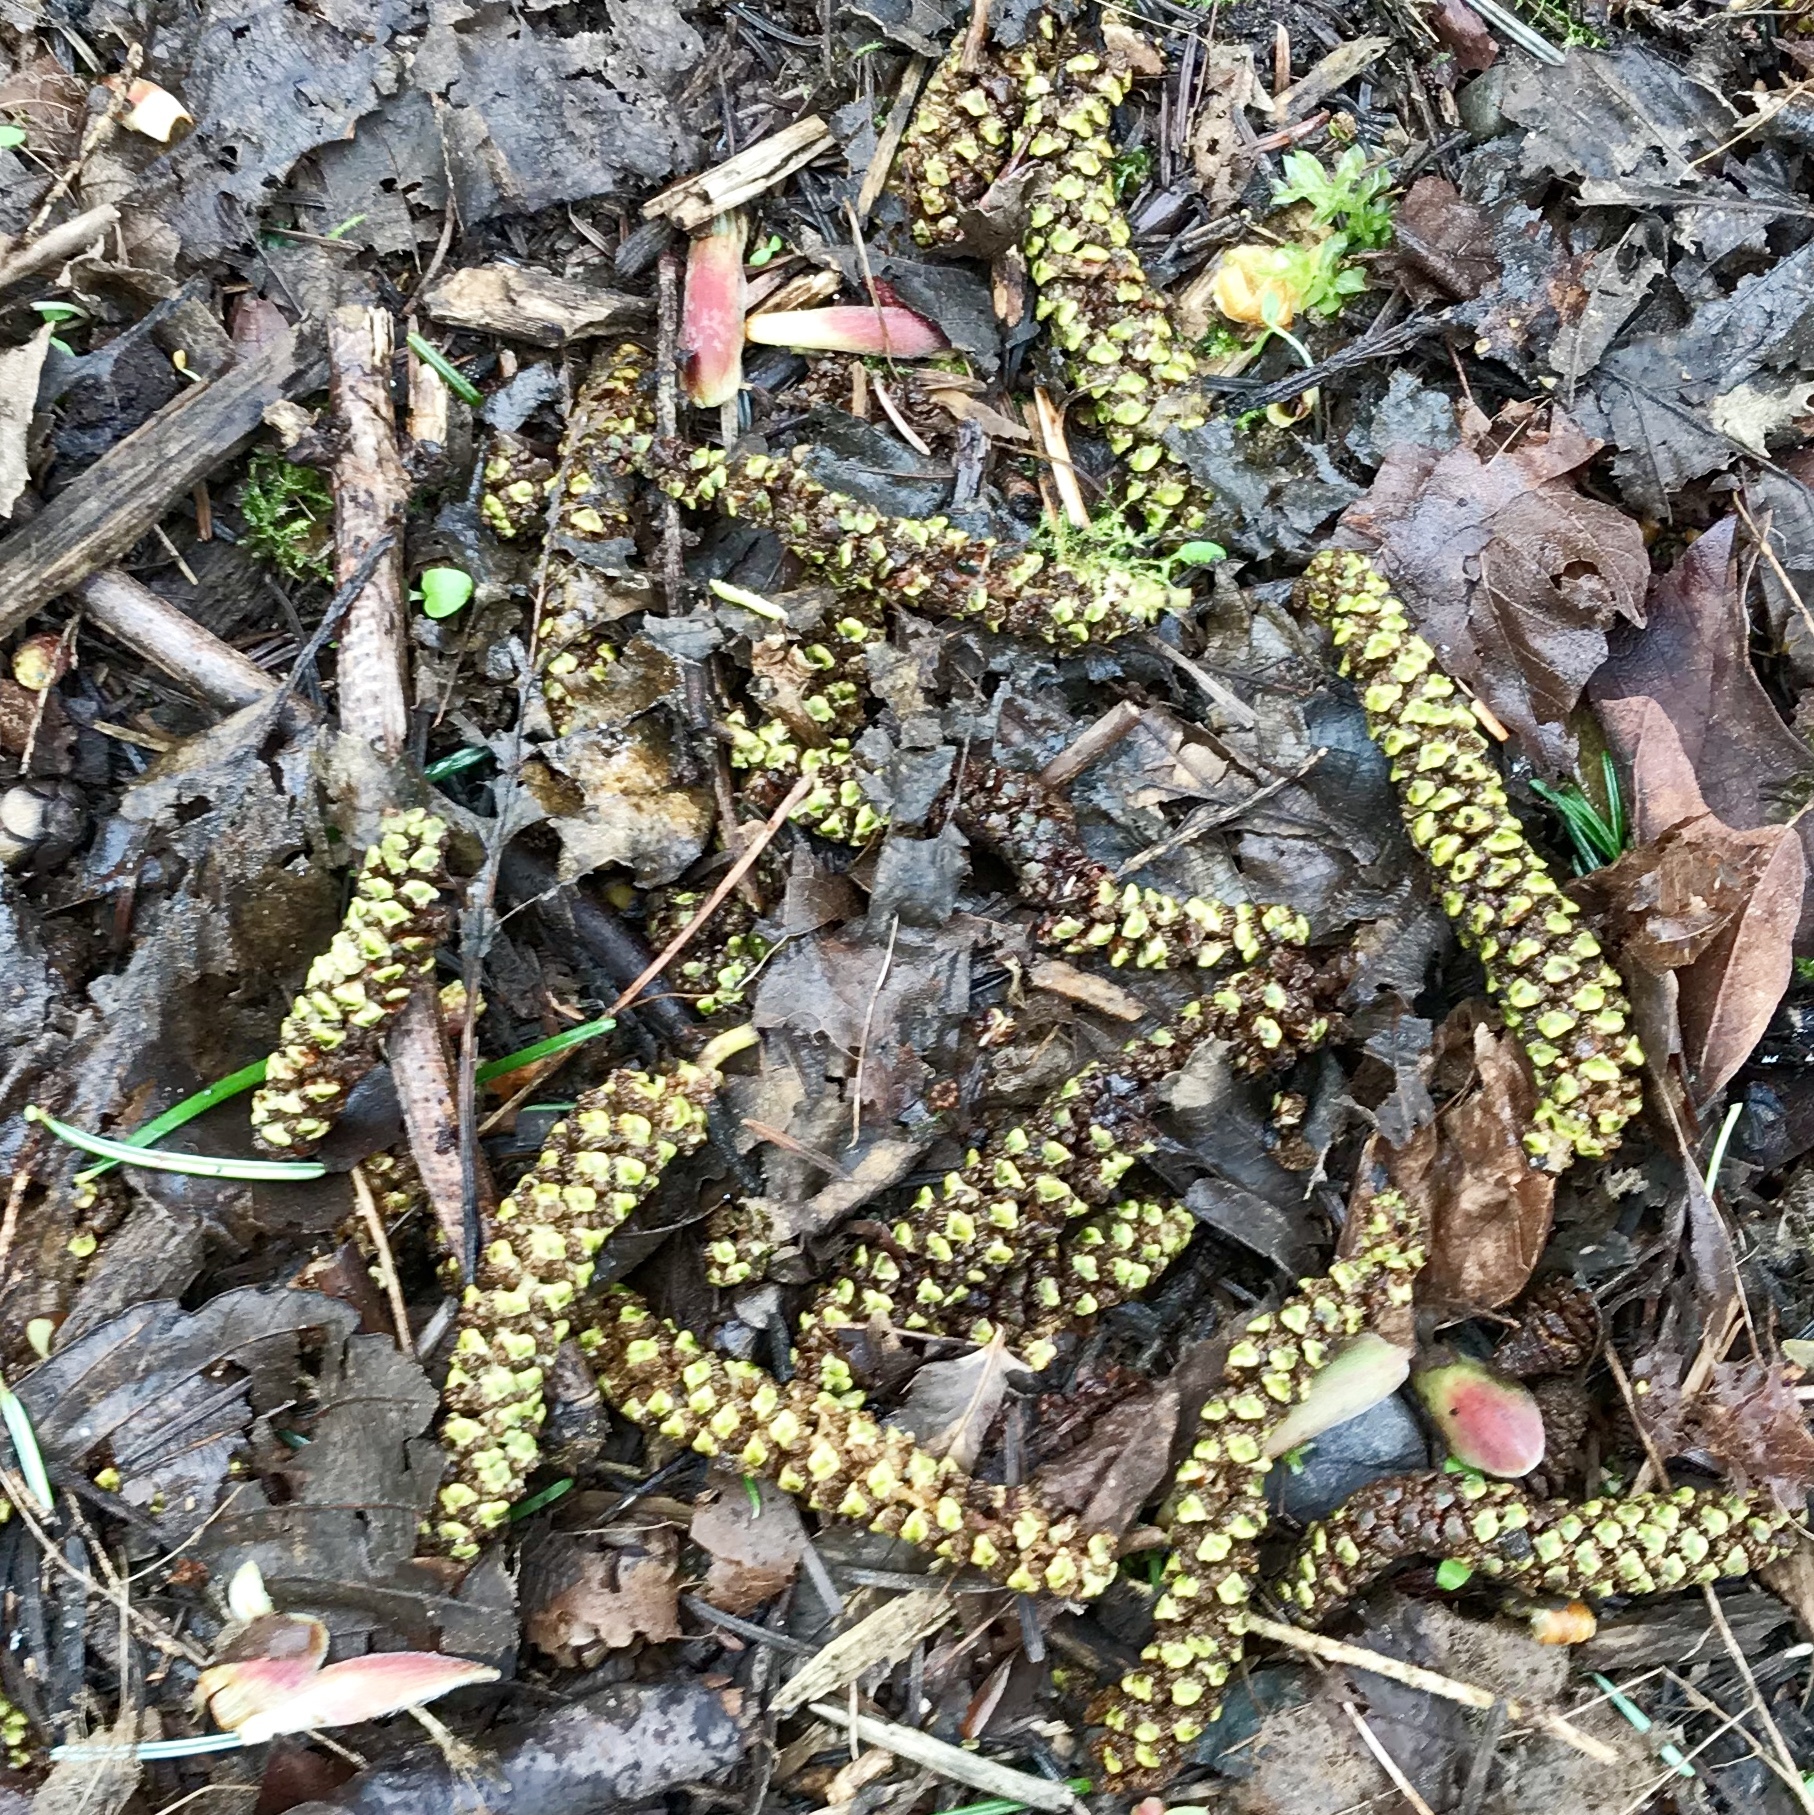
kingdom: Plantae
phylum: Tracheophyta
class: Magnoliopsida
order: Fagales
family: Betulaceae
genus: Alnus
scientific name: Alnus rubra
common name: Red alder
